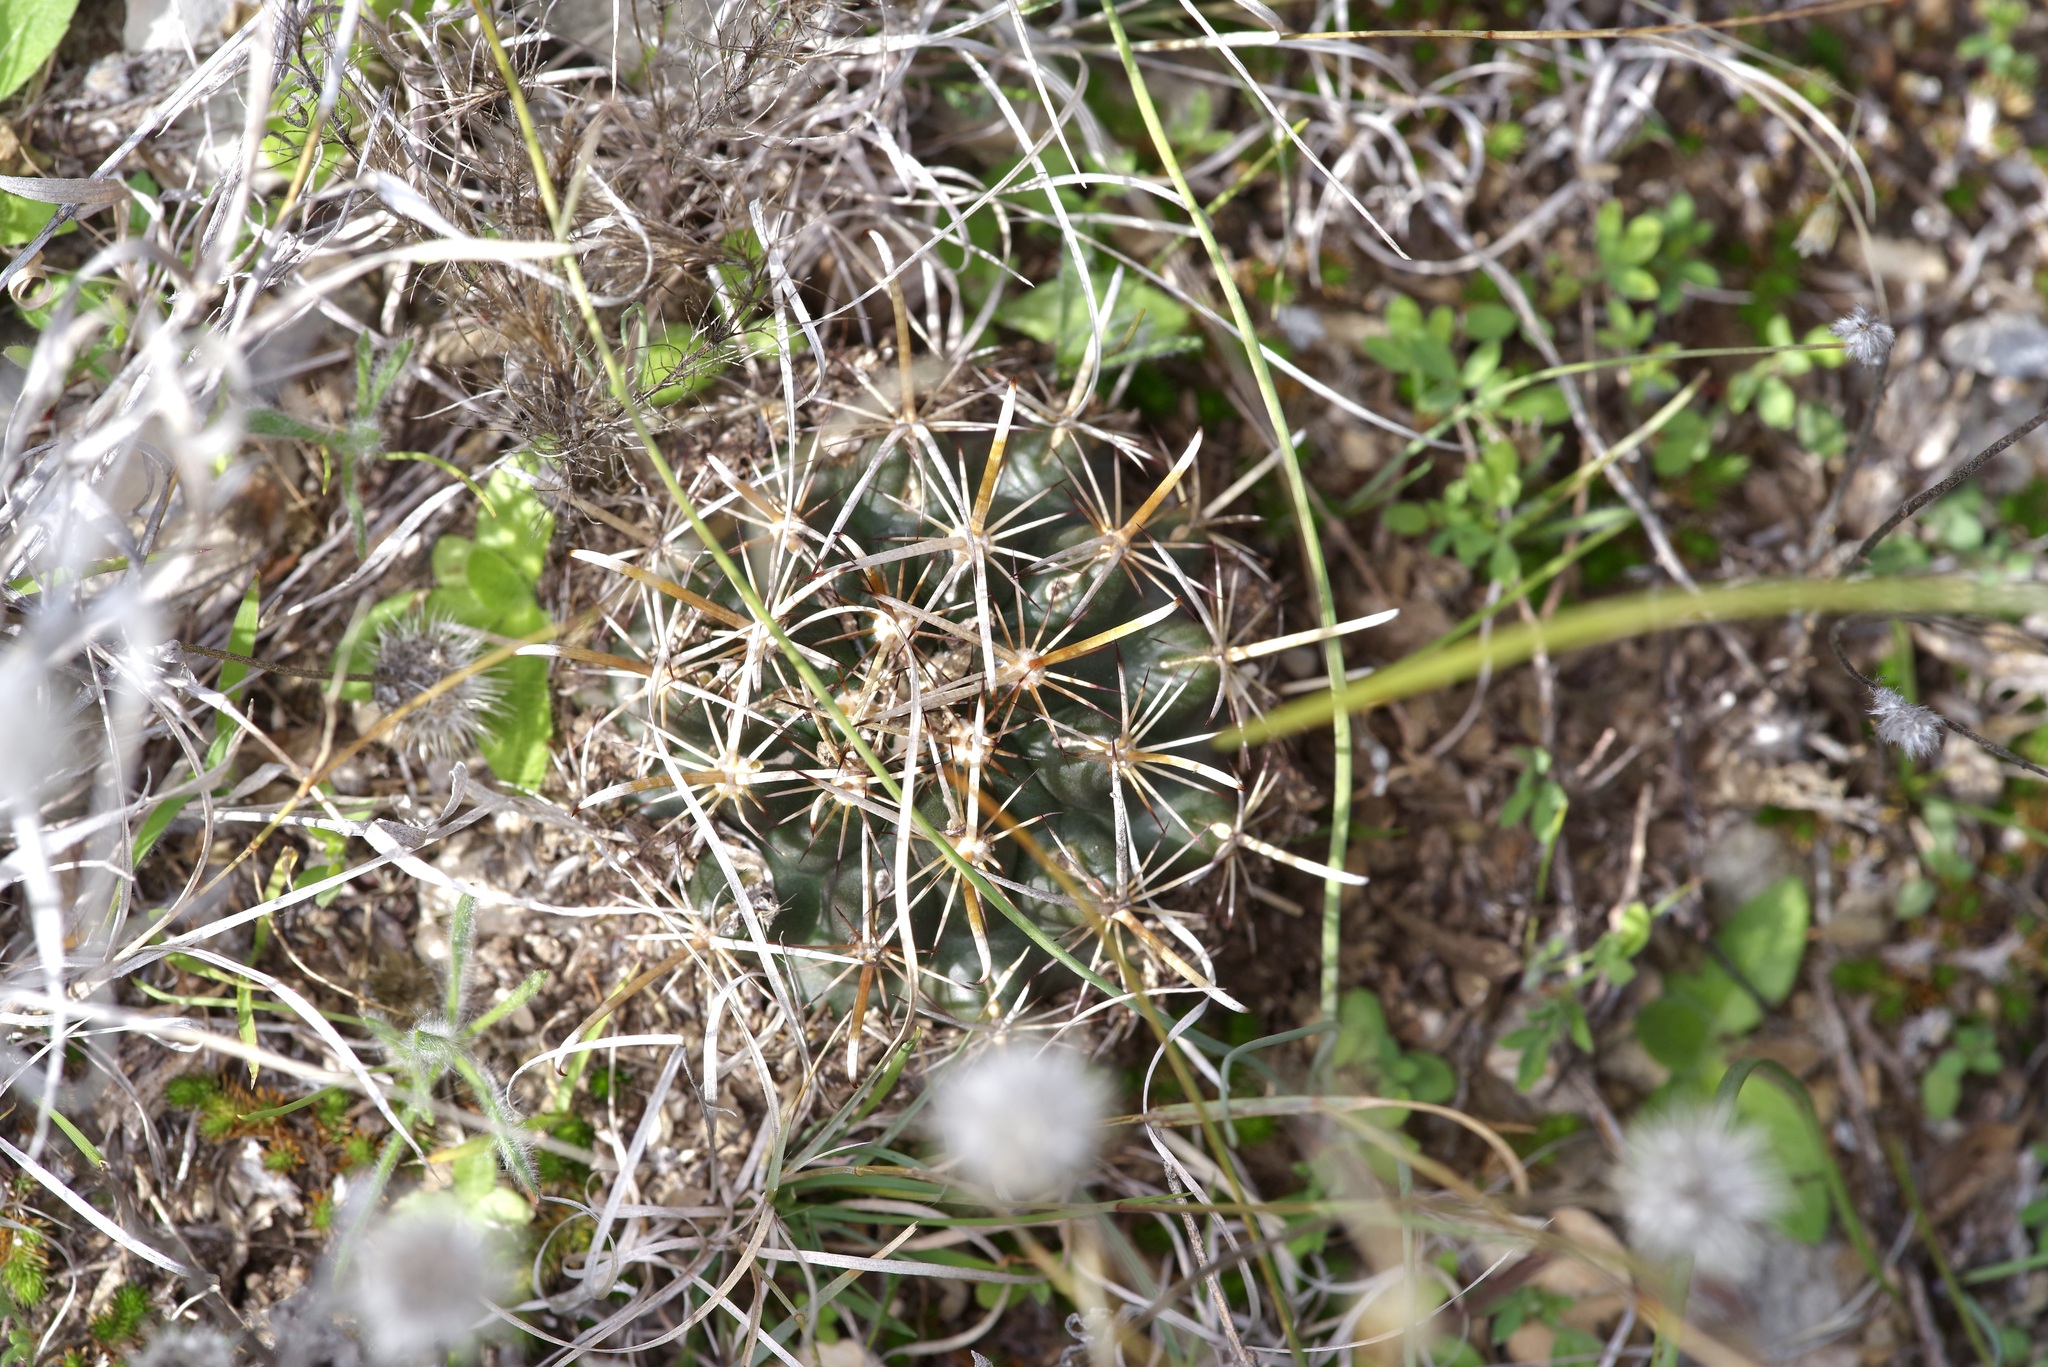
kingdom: Plantae
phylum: Tracheophyta
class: Magnoliopsida
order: Caryophyllales
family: Cactaceae
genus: Sclerocactus
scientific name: Sclerocactus brevihamatus
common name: Engelmann's fishhook cactus
